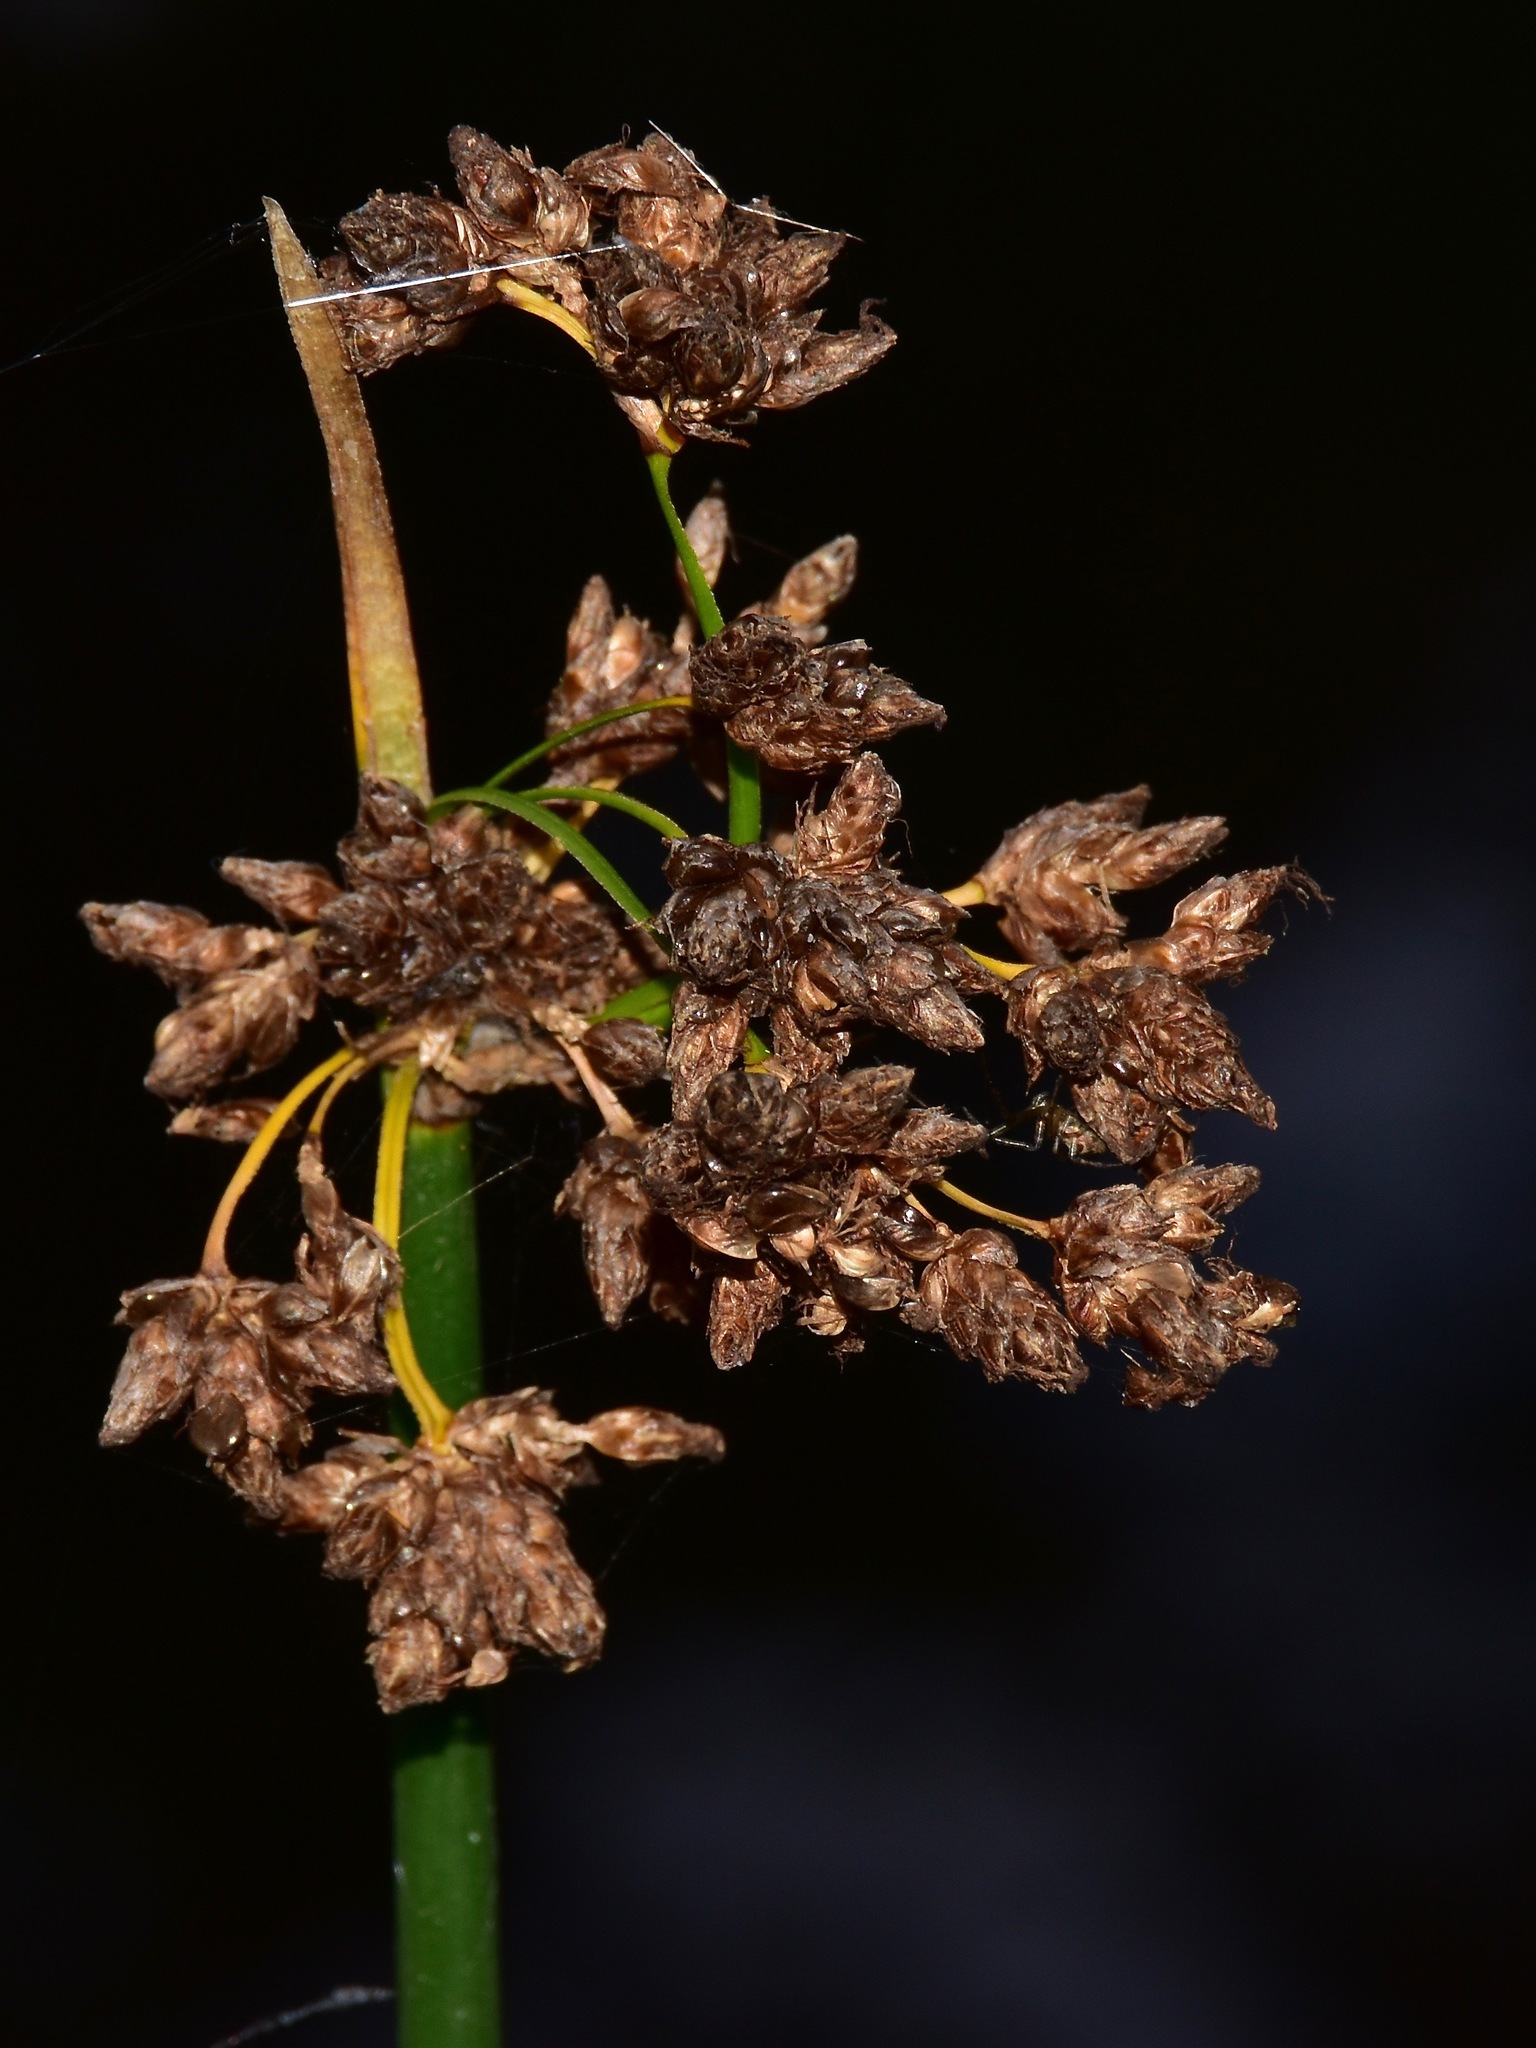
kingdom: Plantae
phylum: Tracheophyta
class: Liliopsida
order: Poales
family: Cyperaceae
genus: Schoenoplectus
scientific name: Schoenoplectus lacustris
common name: Common club-rush
